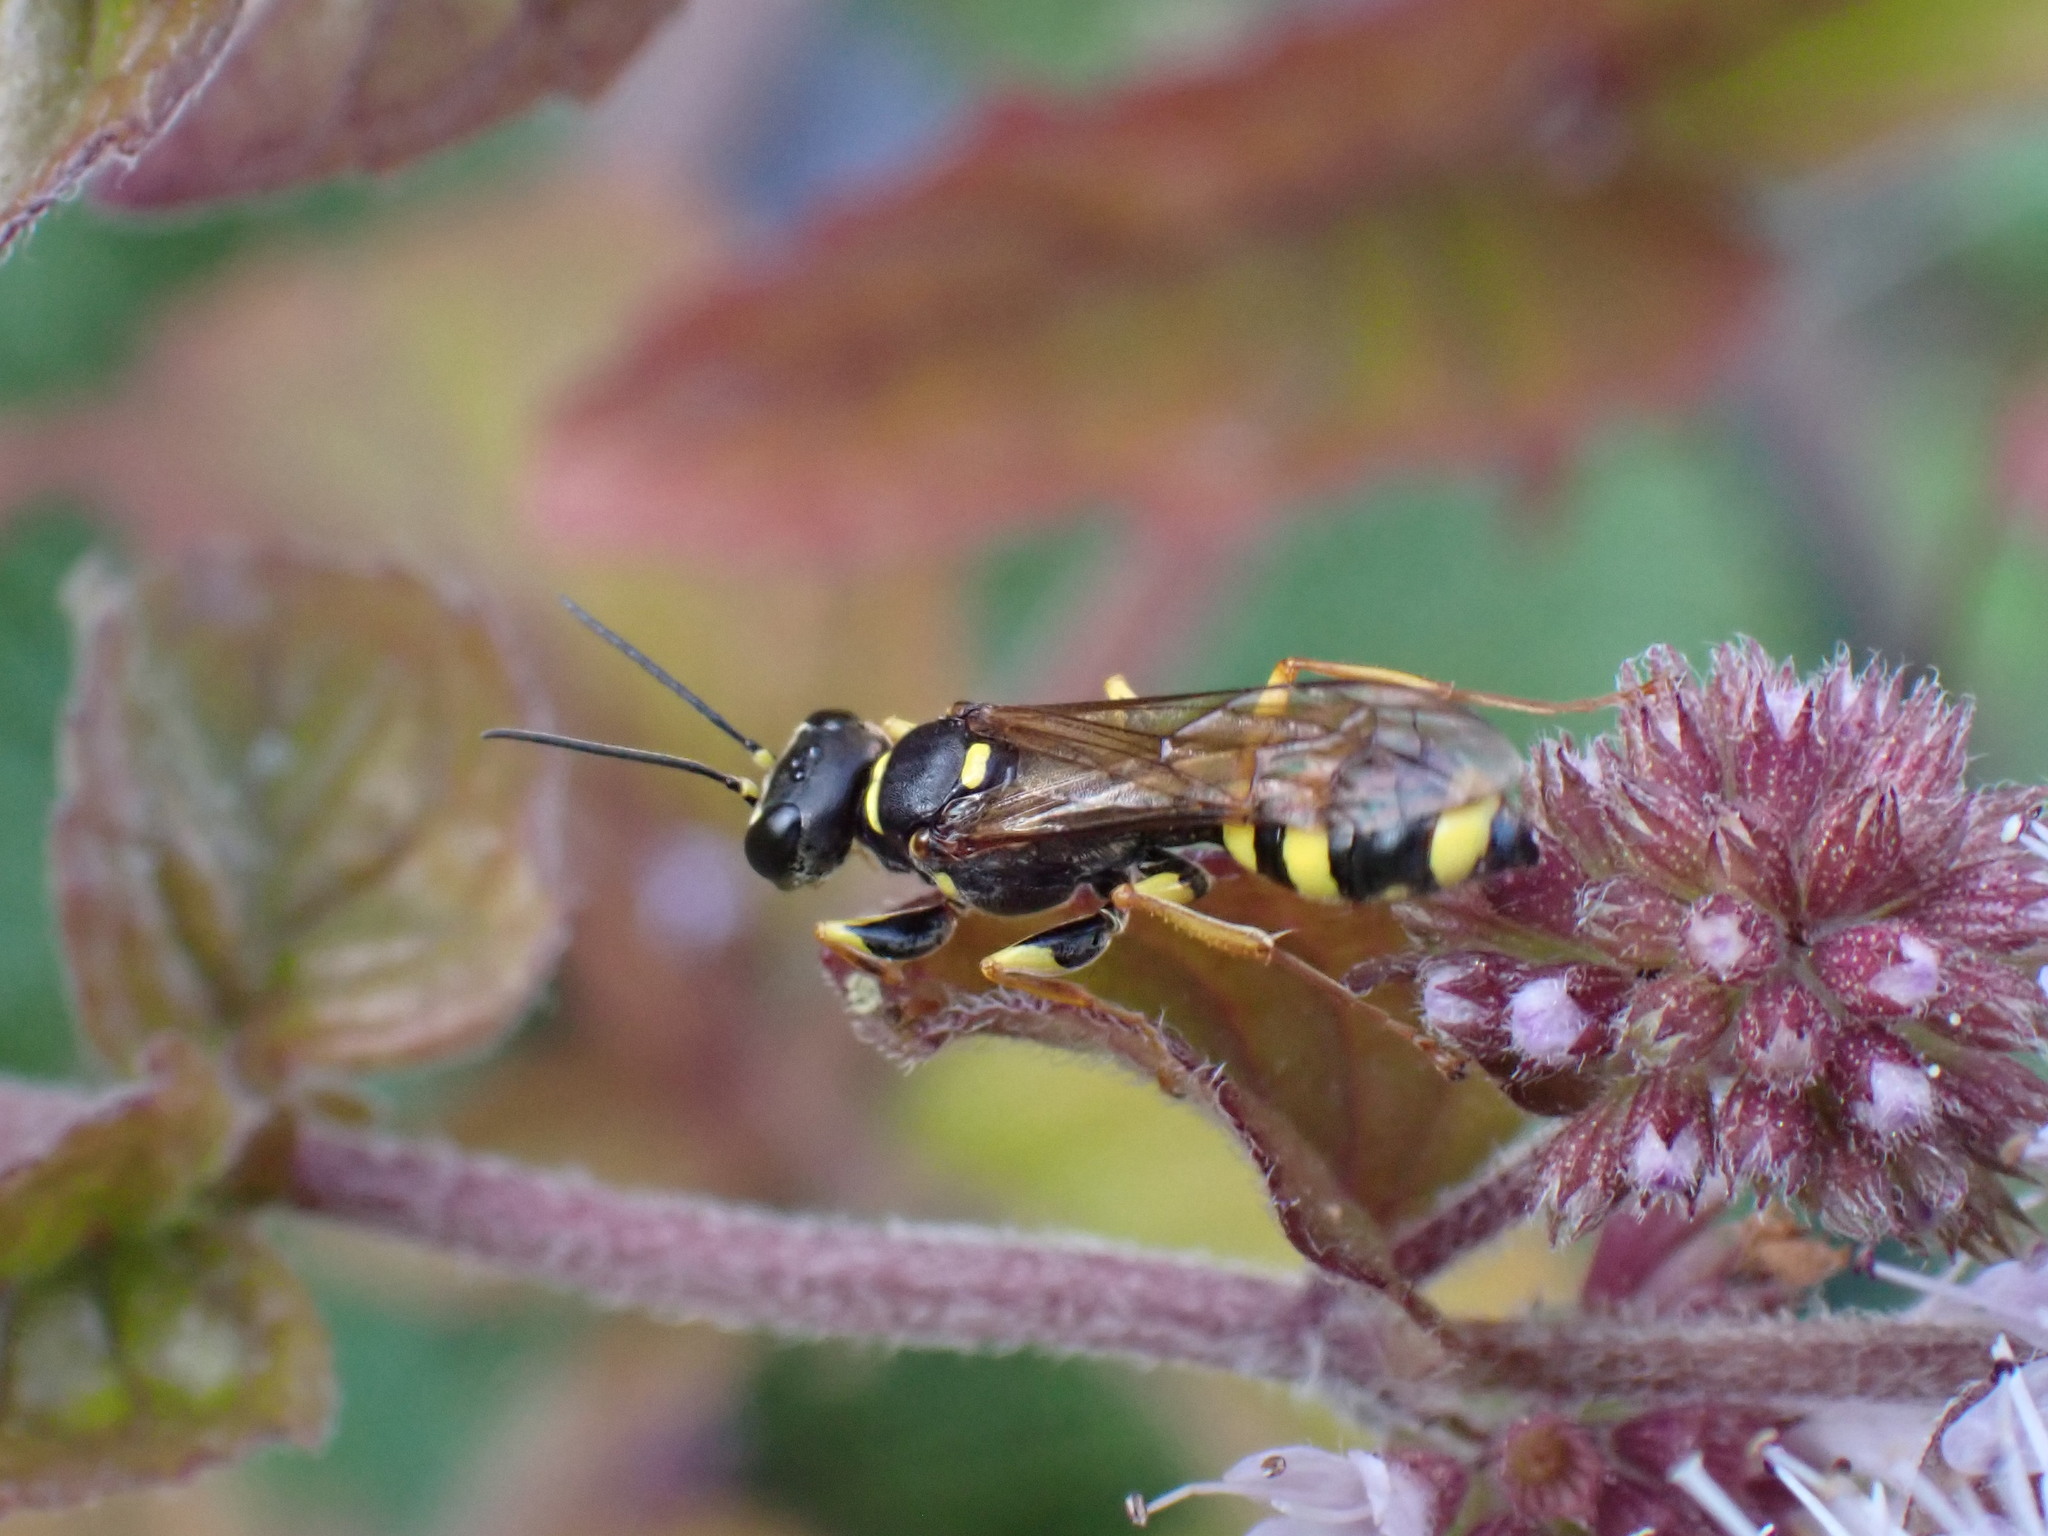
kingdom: Animalia
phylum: Arthropoda
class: Insecta
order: Hymenoptera
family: Crabronidae
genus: Mellinus
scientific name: Mellinus arvensis
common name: Field digger wasp
